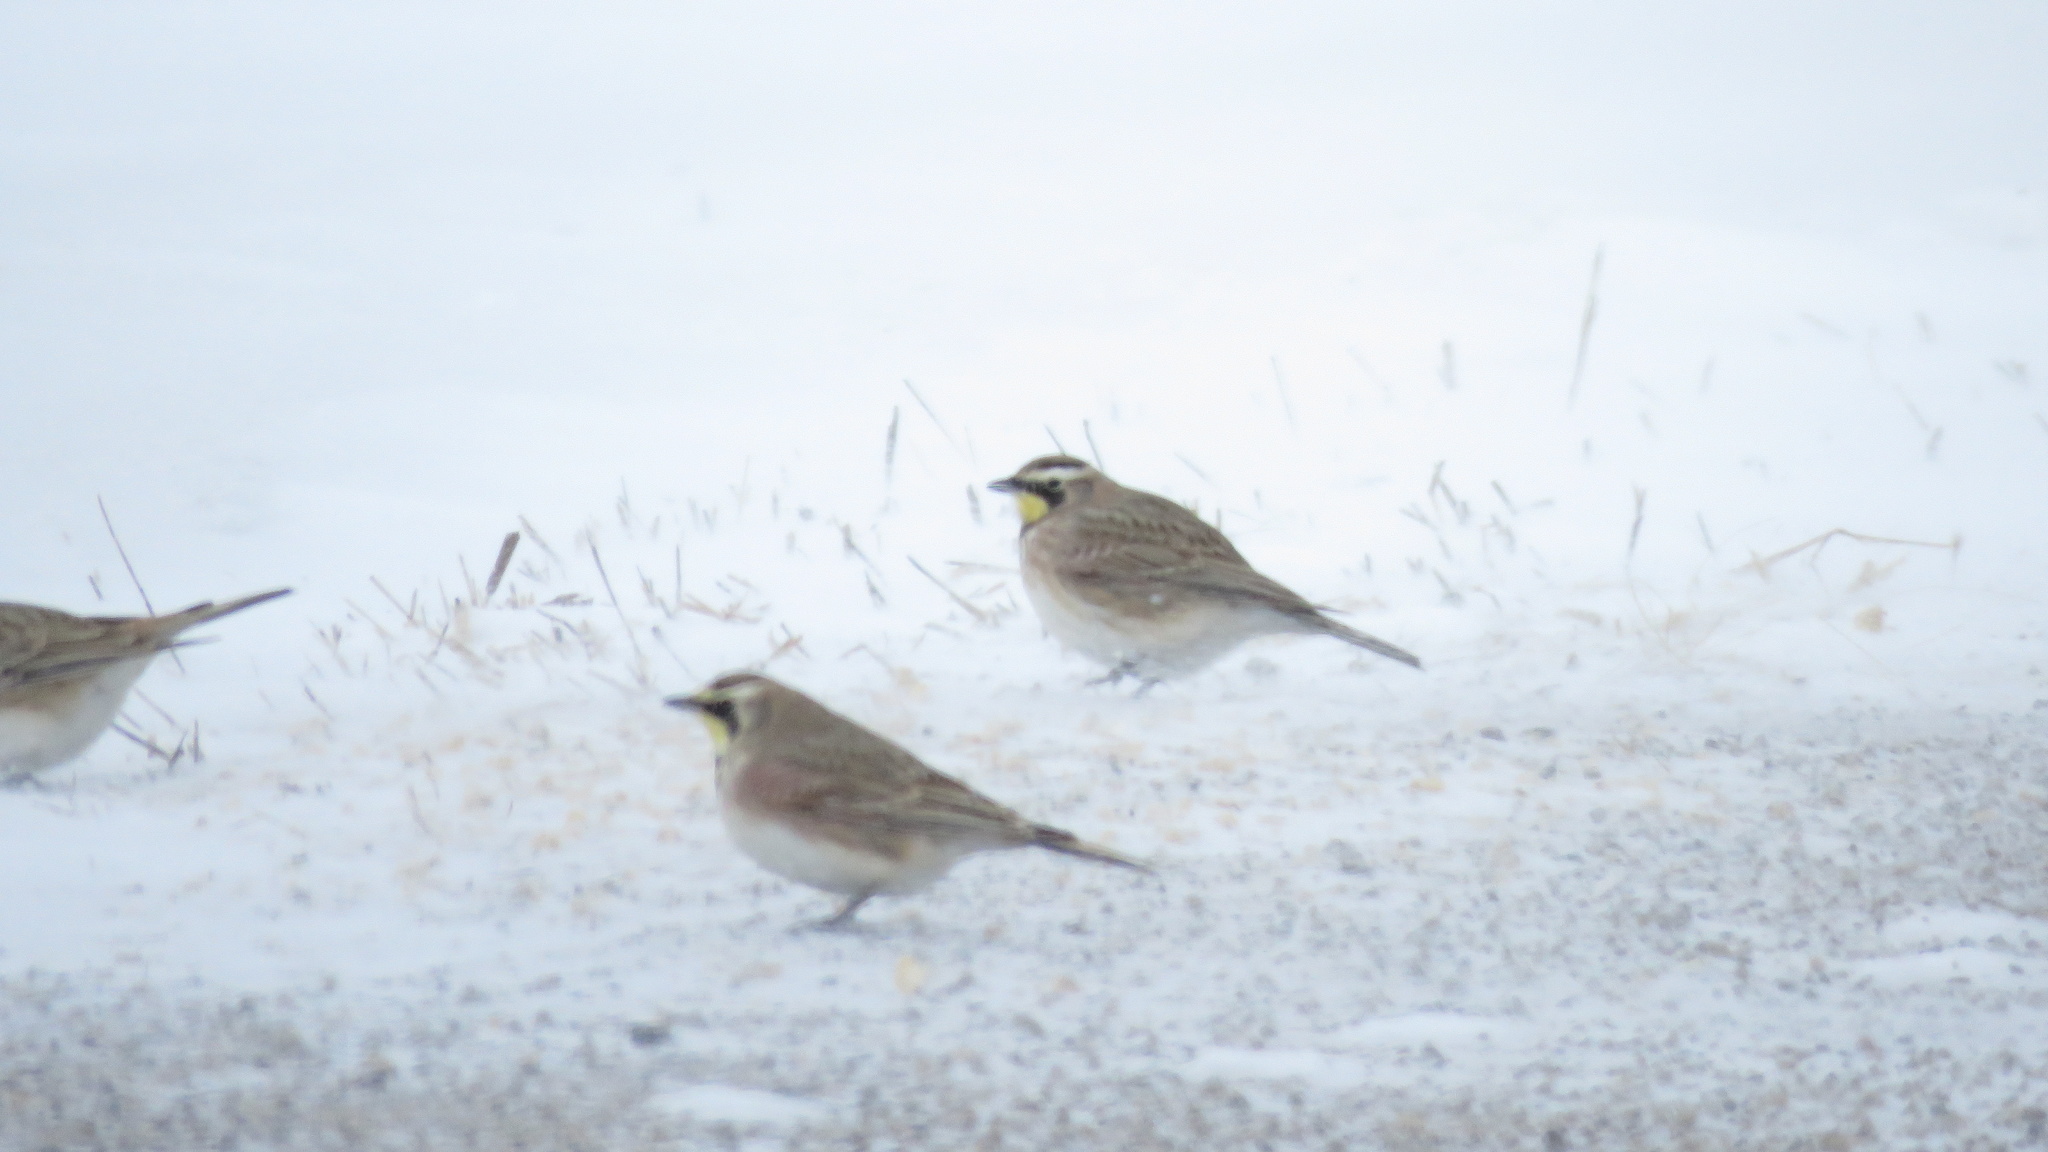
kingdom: Animalia
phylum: Chordata
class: Aves
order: Passeriformes
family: Alaudidae
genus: Eremophila
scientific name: Eremophila alpestris
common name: Horned lark
